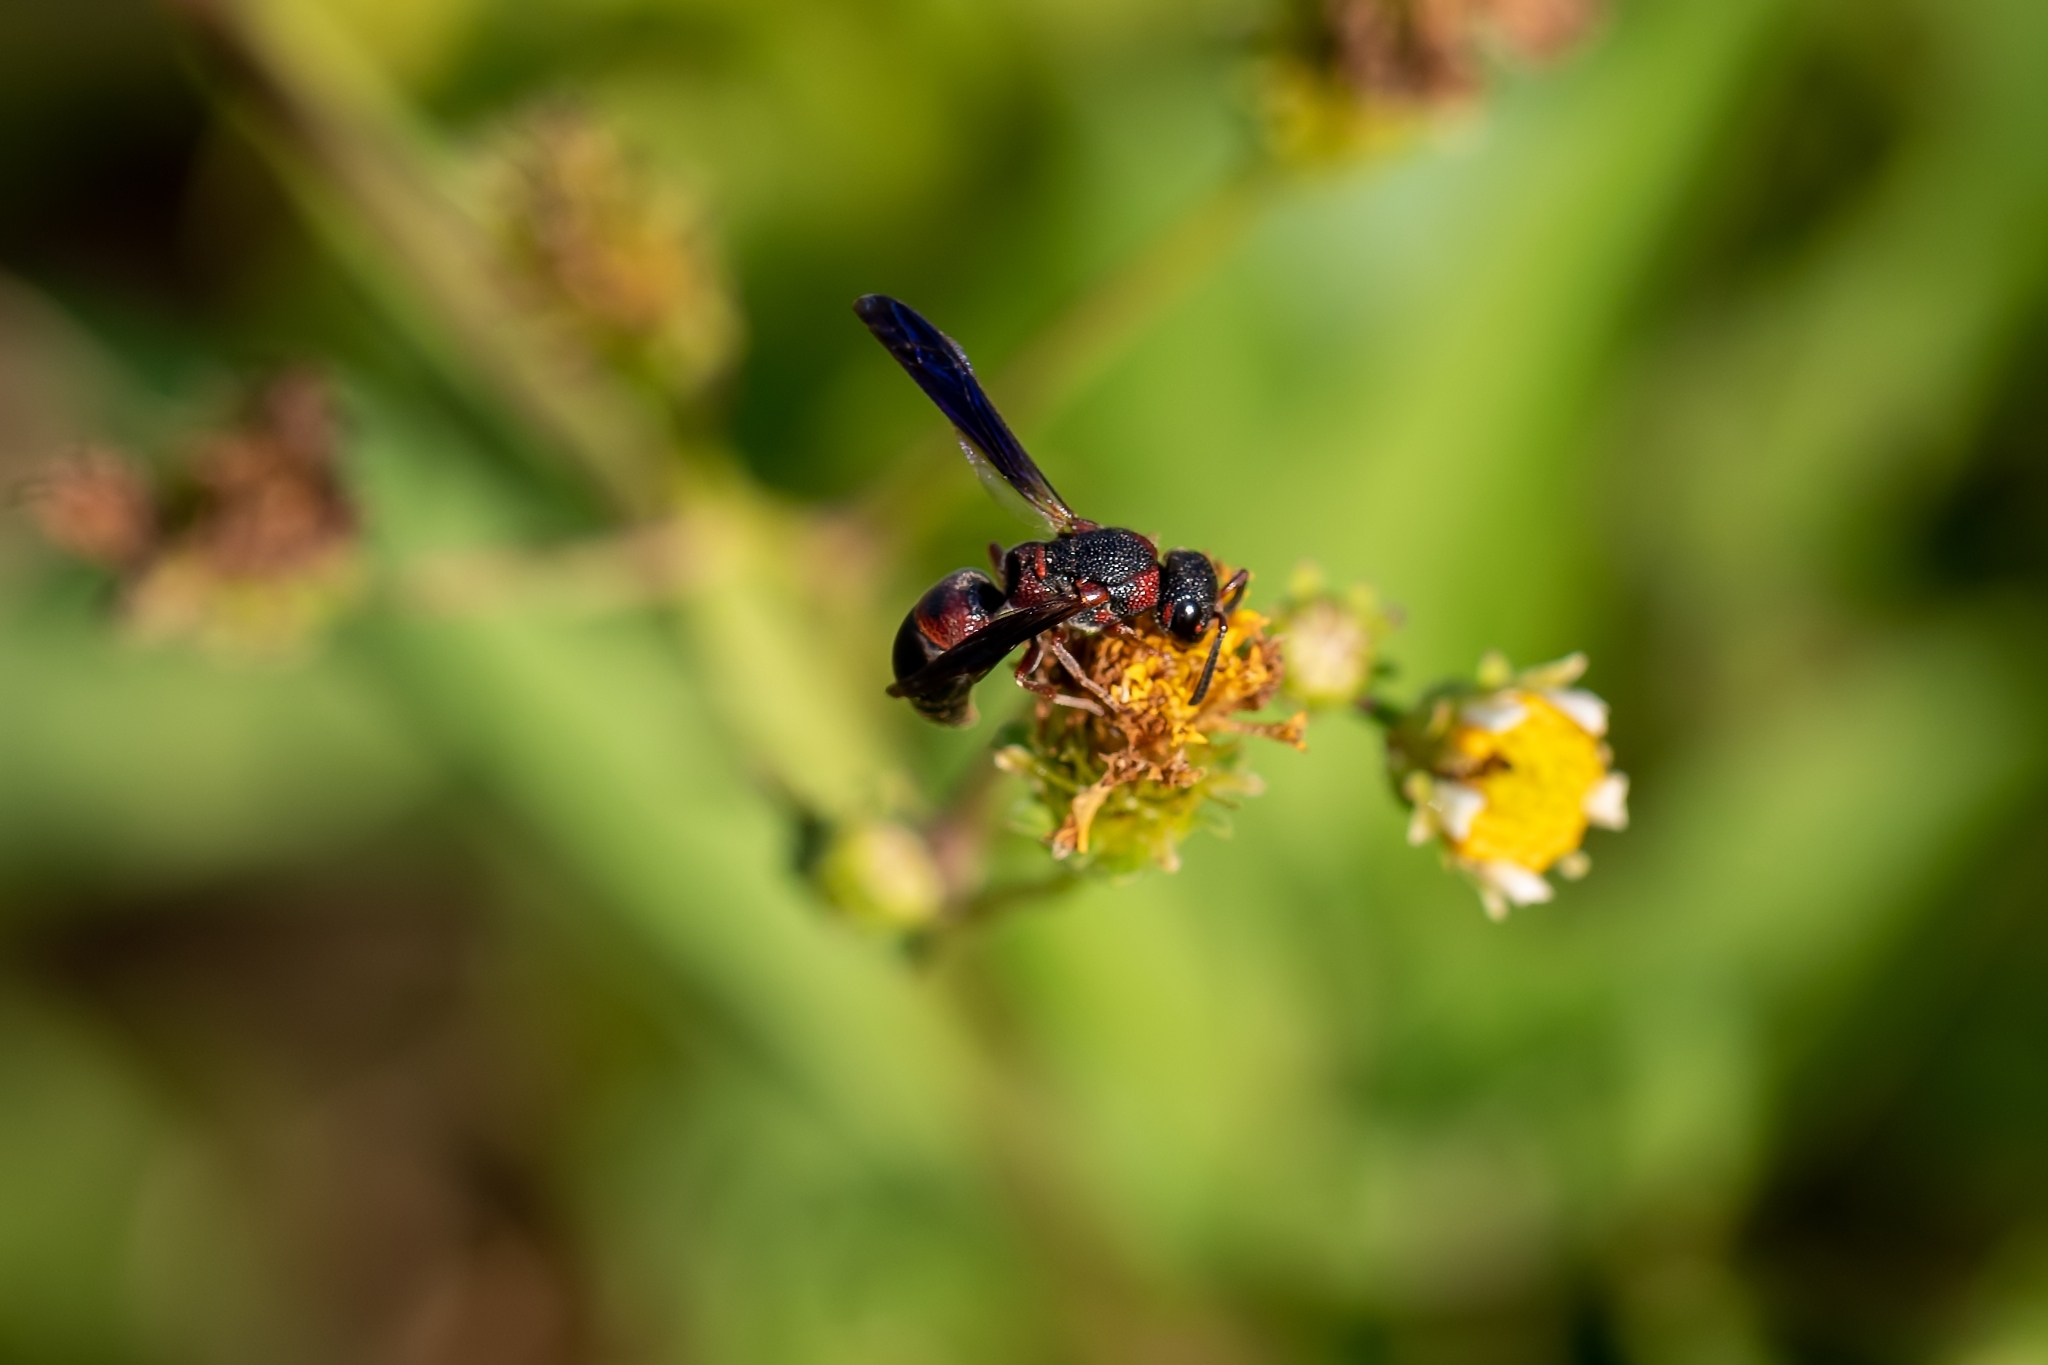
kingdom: Animalia
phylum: Arthropoda
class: Insecta
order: Hymenoptera
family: Eumenidae
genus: Parancistrocerus
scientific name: Parancistrocerus histrio
